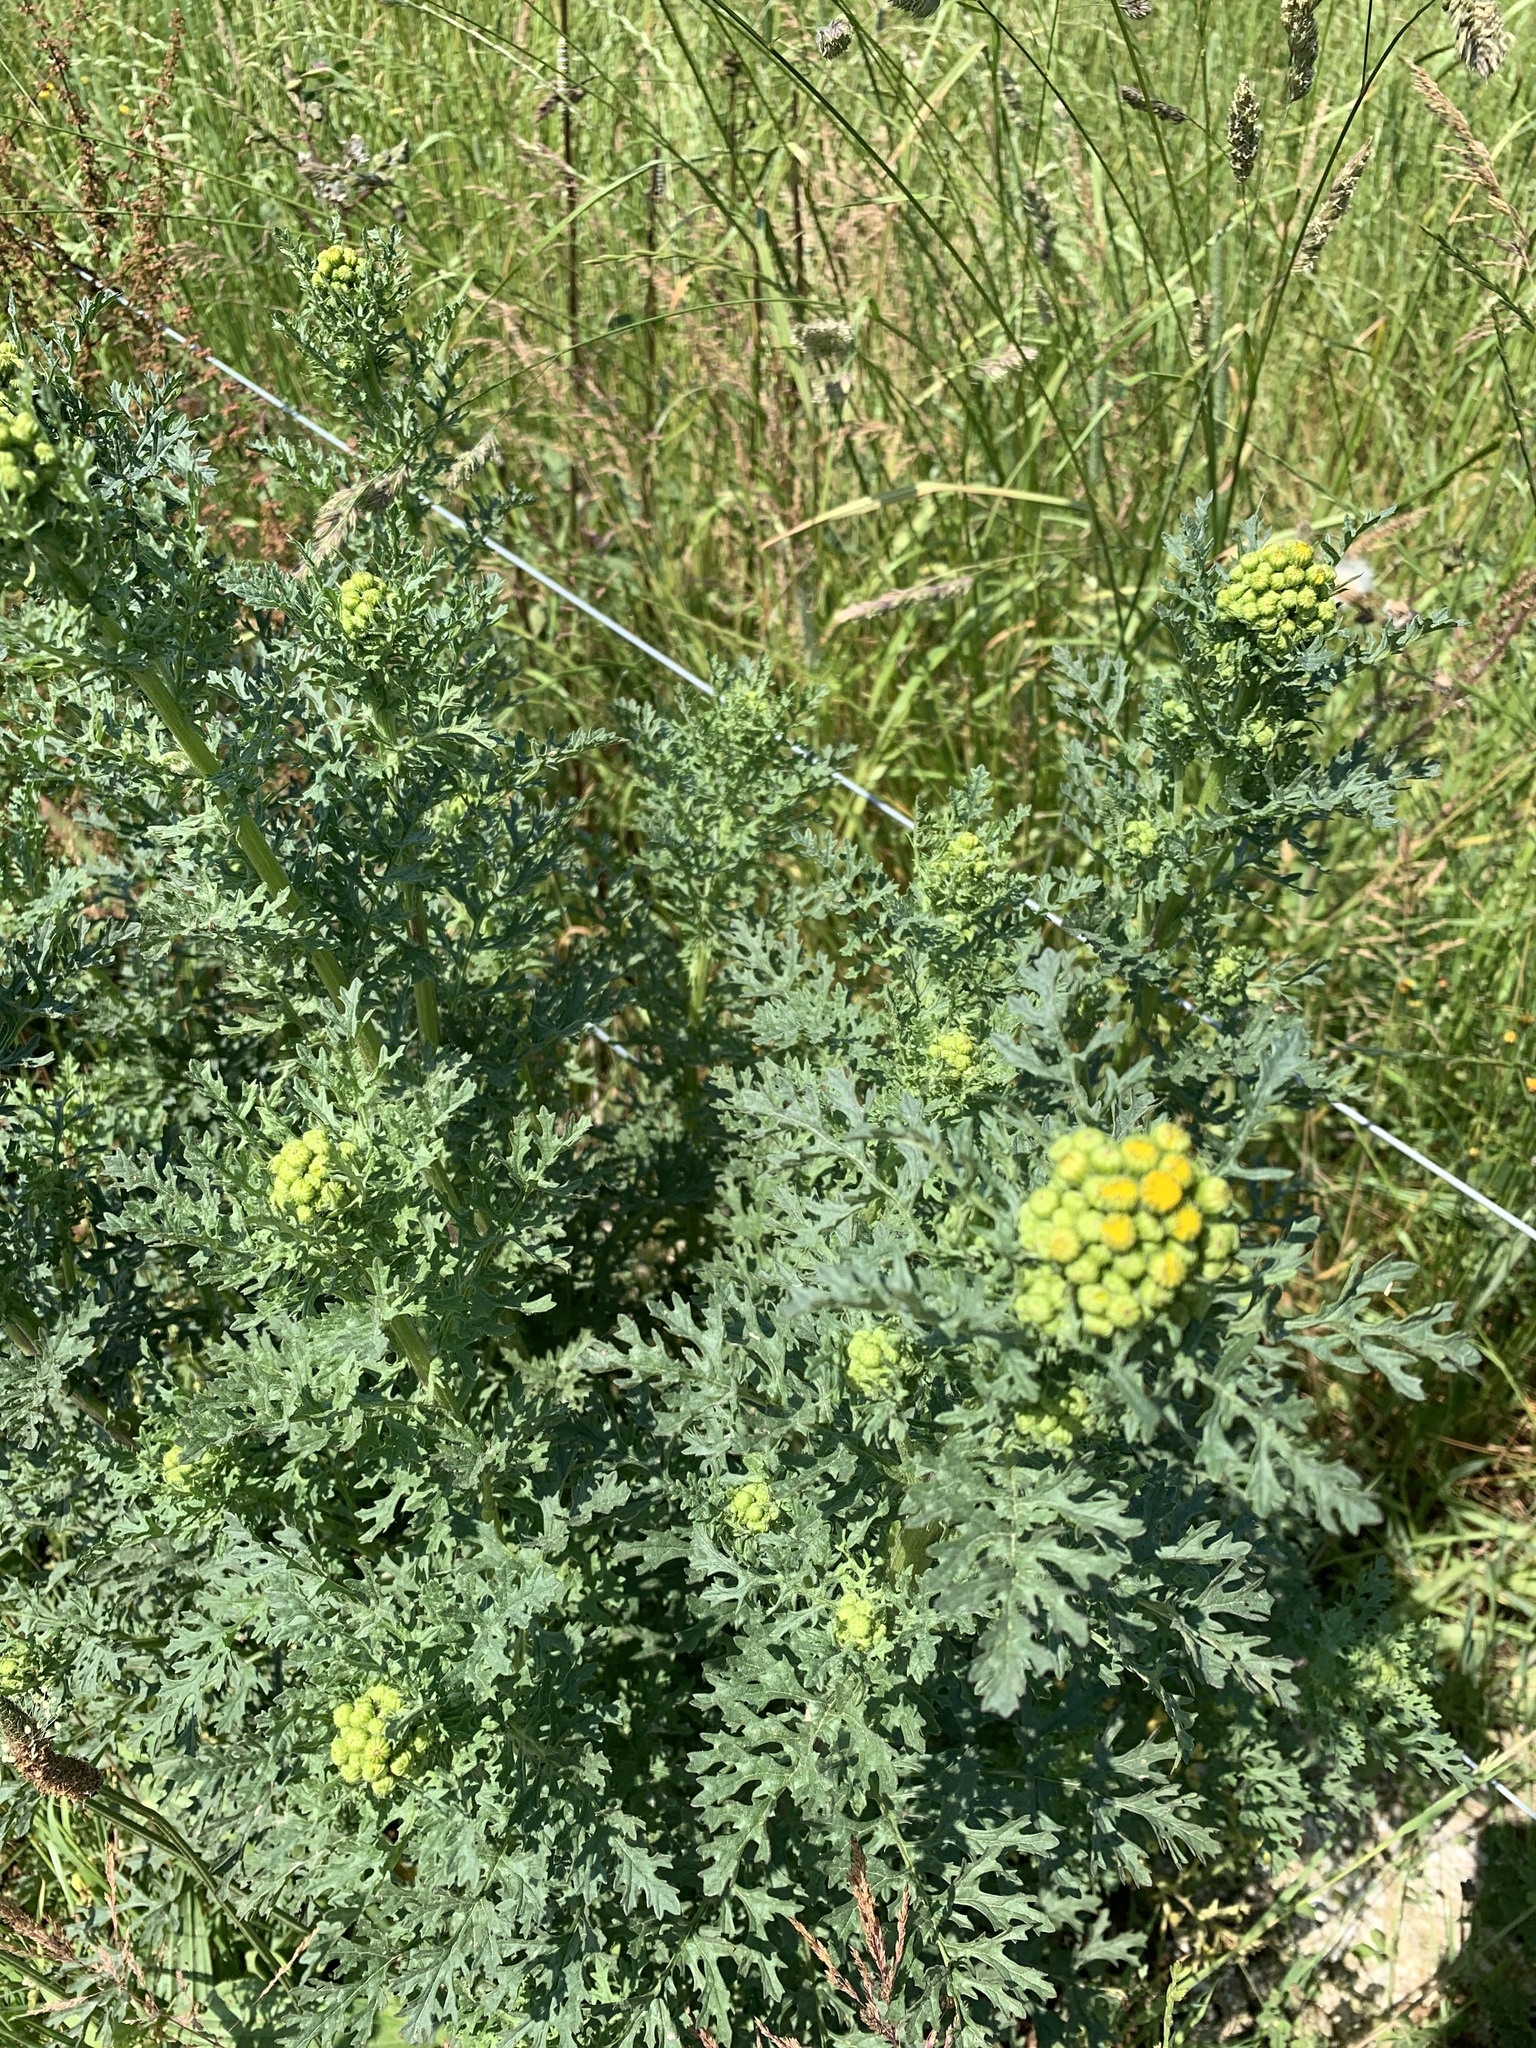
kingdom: Plantae
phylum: Tracheophyta
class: Magnoliopsida
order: Asterales
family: Asteraceae
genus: Jacobaea
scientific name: Jacobaea vulgaris
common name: Stinking willie
